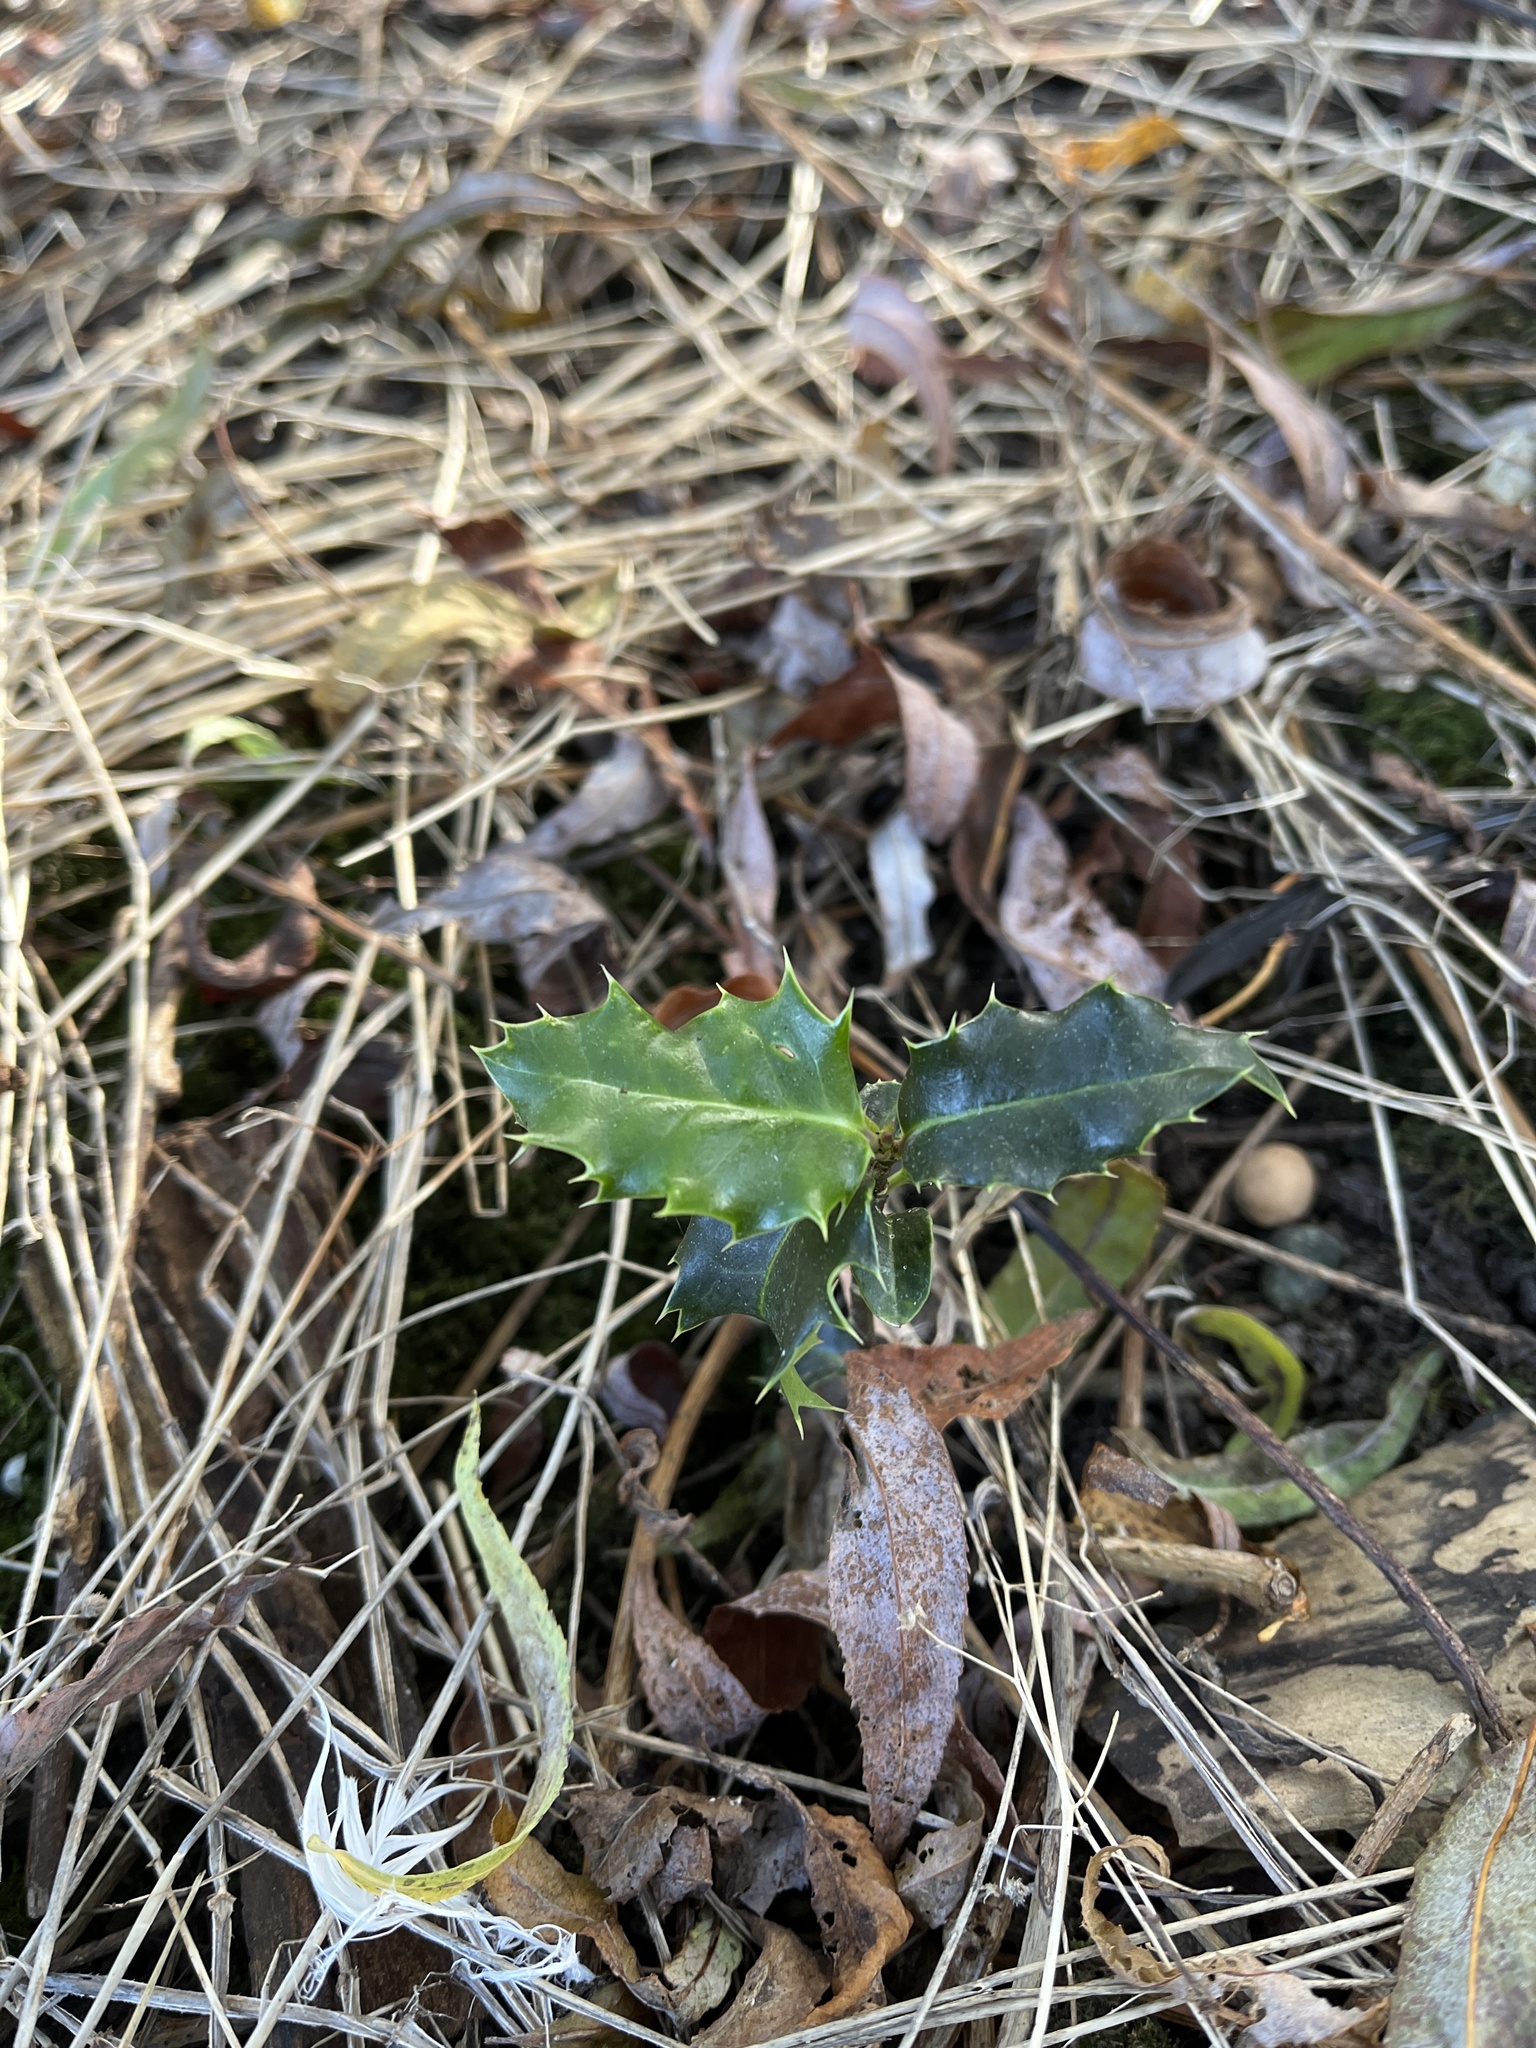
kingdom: Plantae
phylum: Tracheophyta
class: Magnoliopsida
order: Aquifoliales
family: Aquifoliaceae
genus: Ilex
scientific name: Ilex aquifolium
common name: English holly
